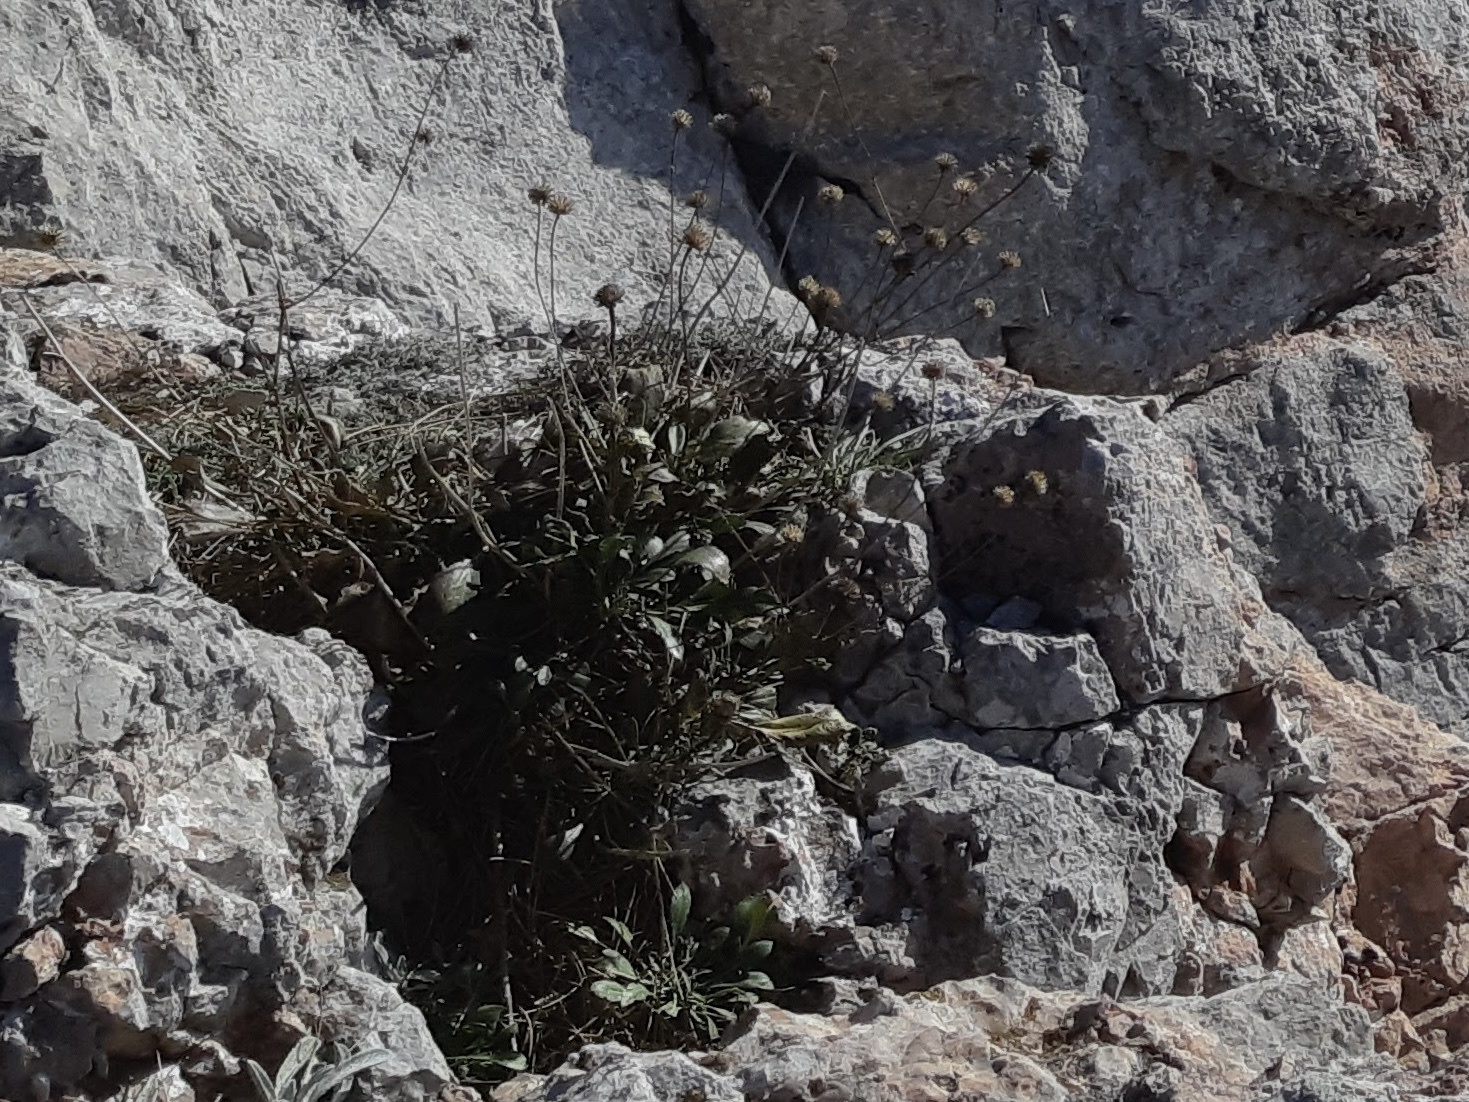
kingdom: Plantae
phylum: Tracheophyta
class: Magnoliopsida
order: Dipsacales
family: Caprifoliaceae
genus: Cephalaria
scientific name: Cephalaria coriacea
